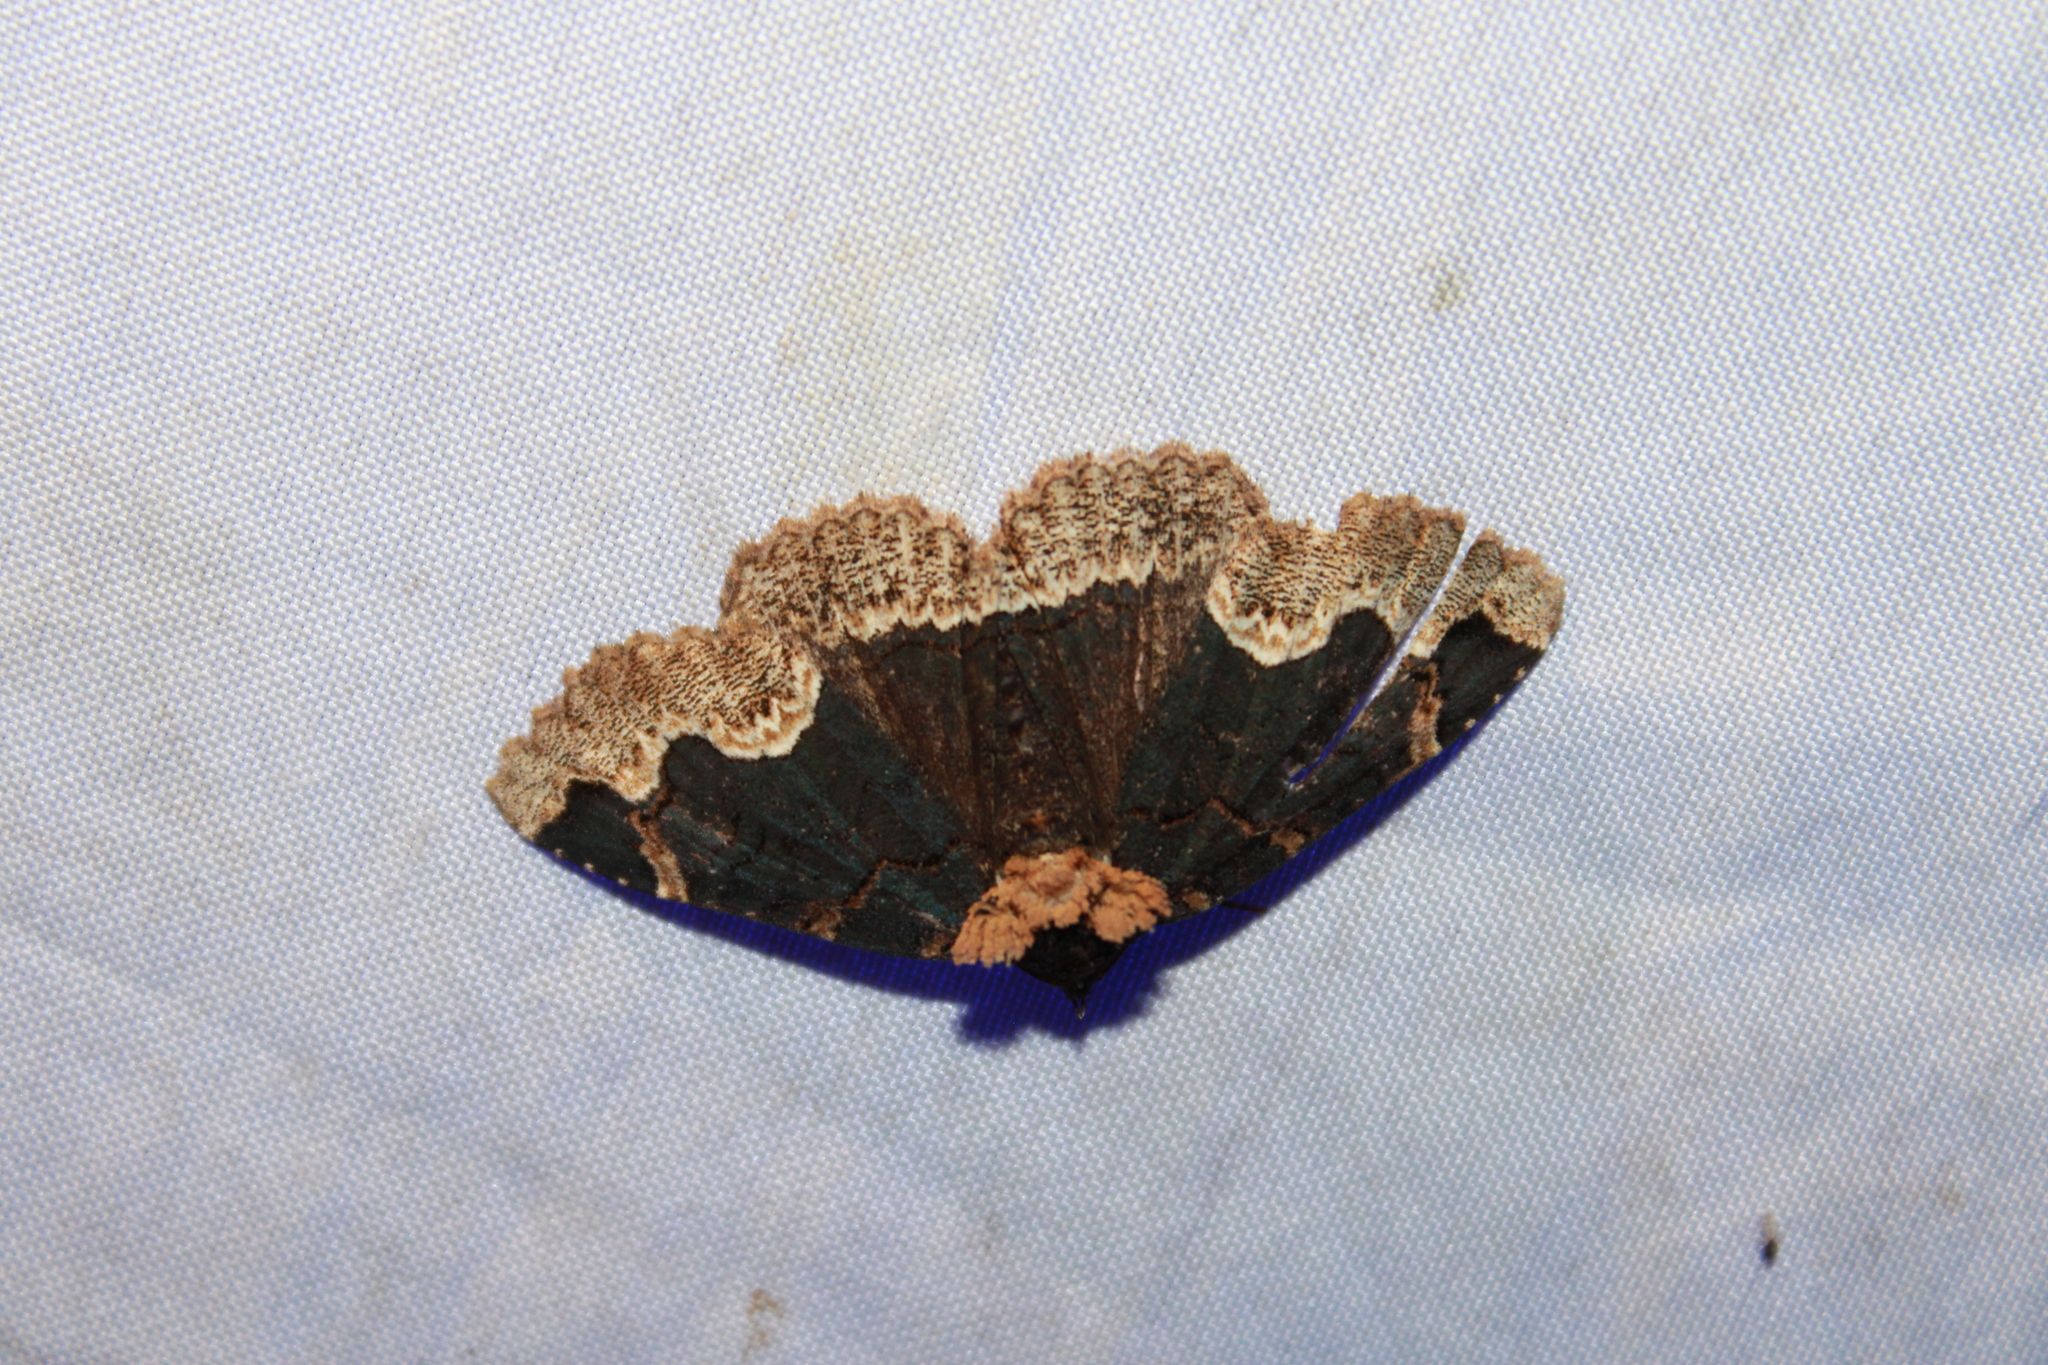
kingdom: Animalia
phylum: Arthropoda
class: Insecta
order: Lepidoptera
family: Erebidae
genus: Zale
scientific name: Zale horrida
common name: Horrid zale moth
